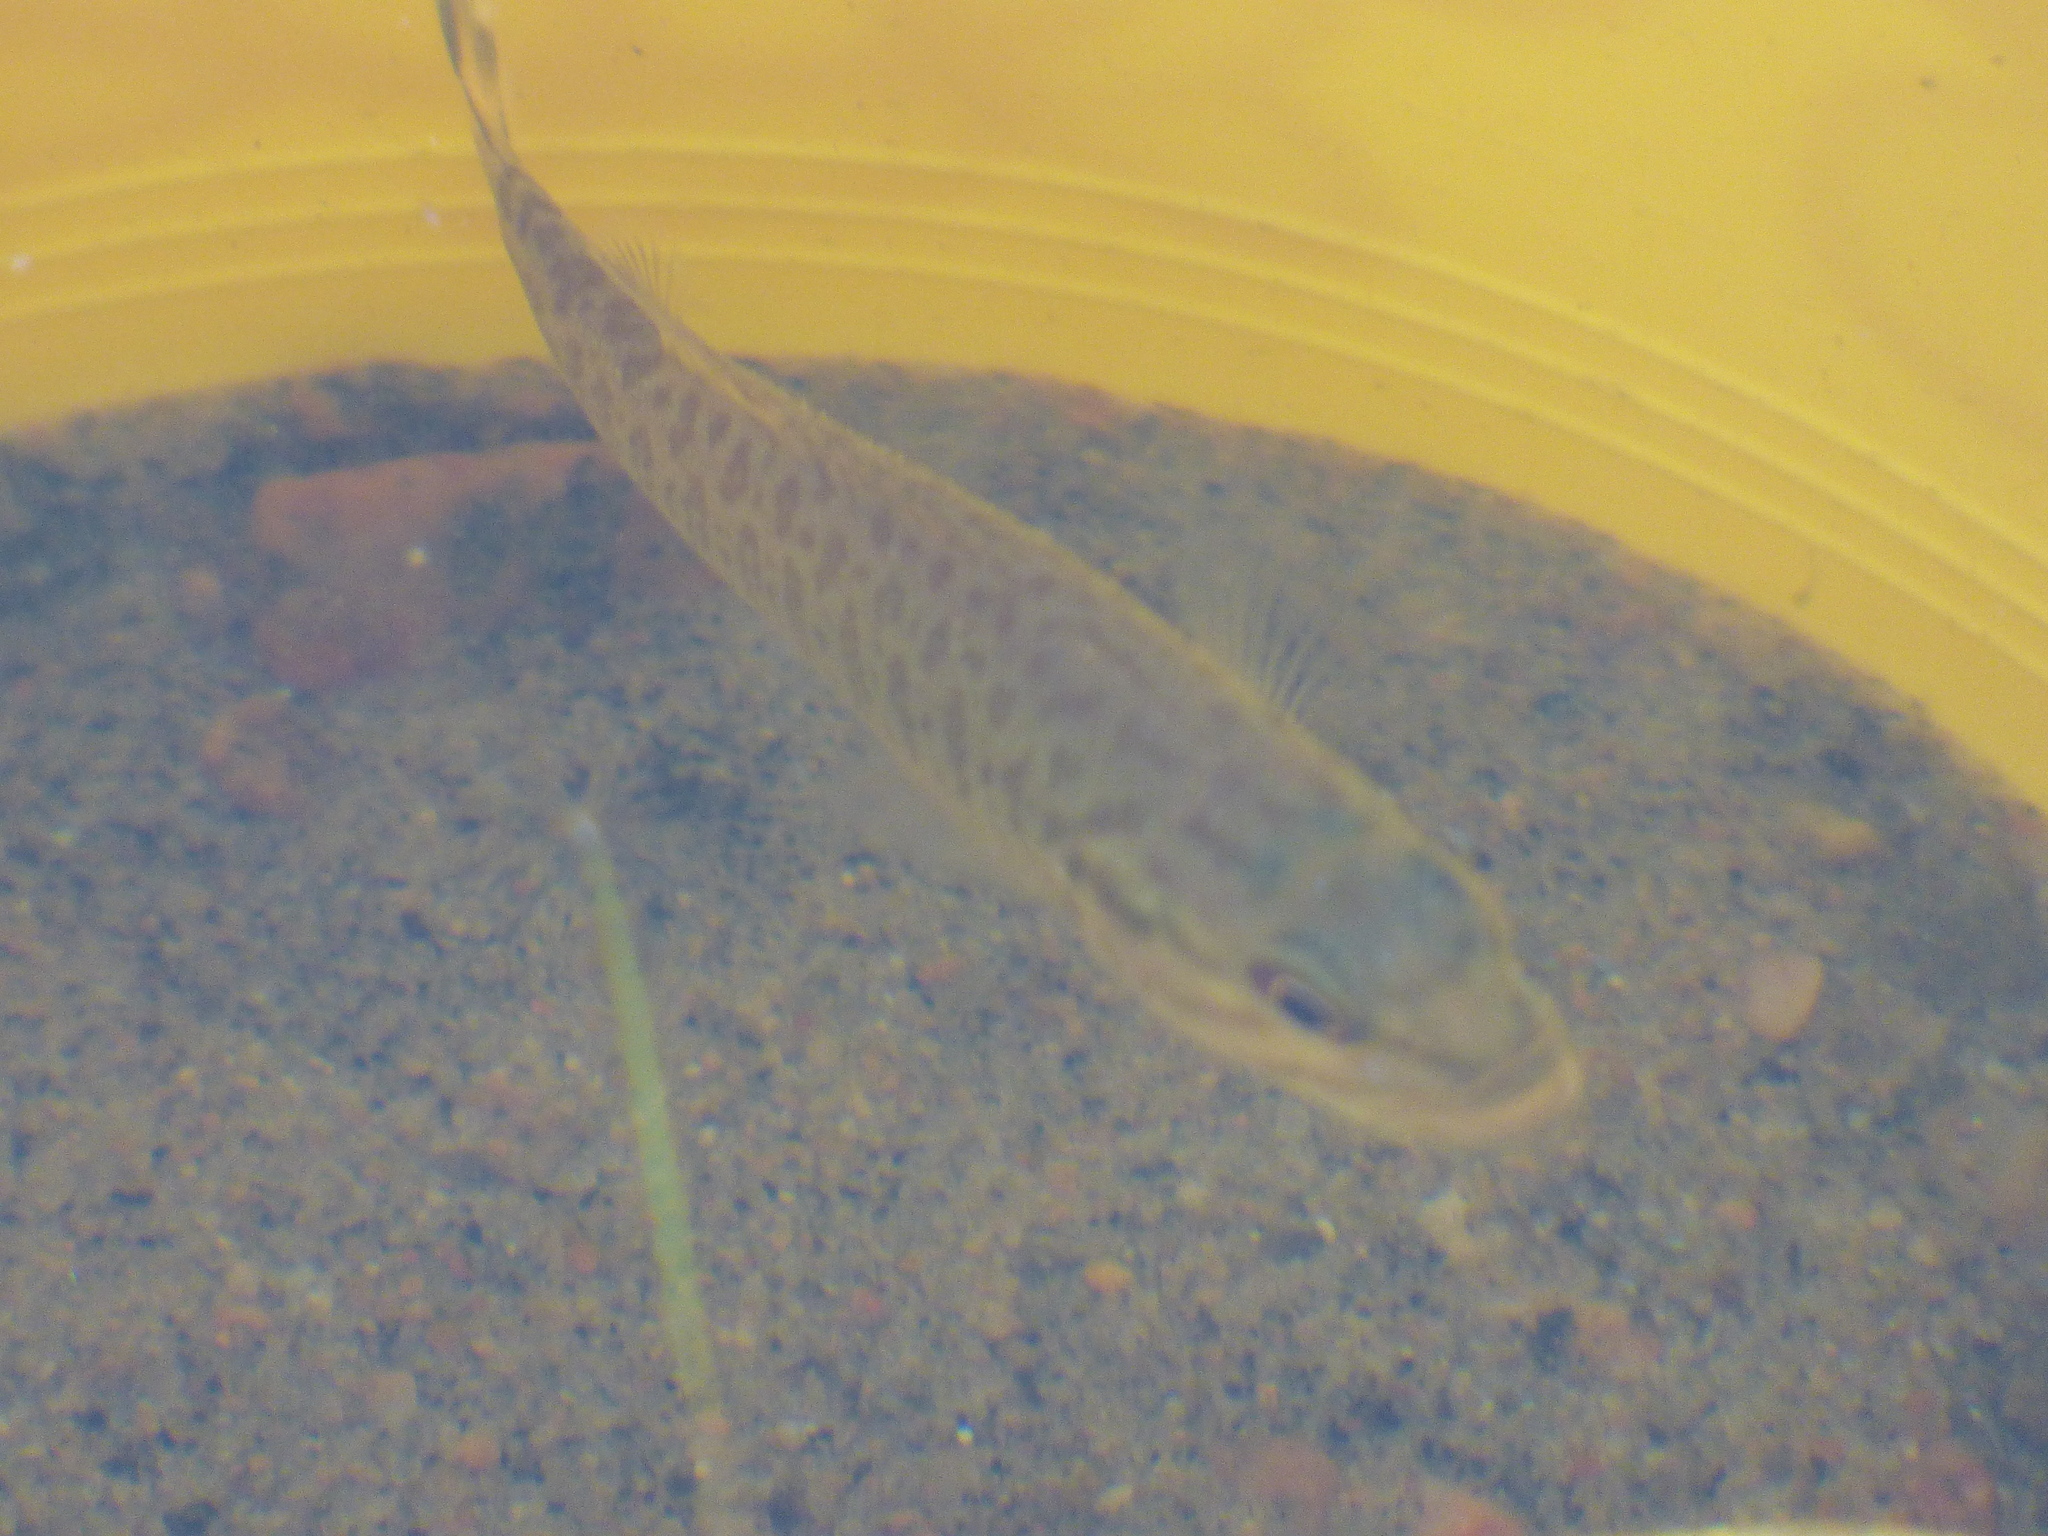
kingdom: Animalia
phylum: Chordata
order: Perciformes
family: Centrarchidae
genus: Micropterus
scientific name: Micropterus dolomieu
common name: Smallmouth bass
